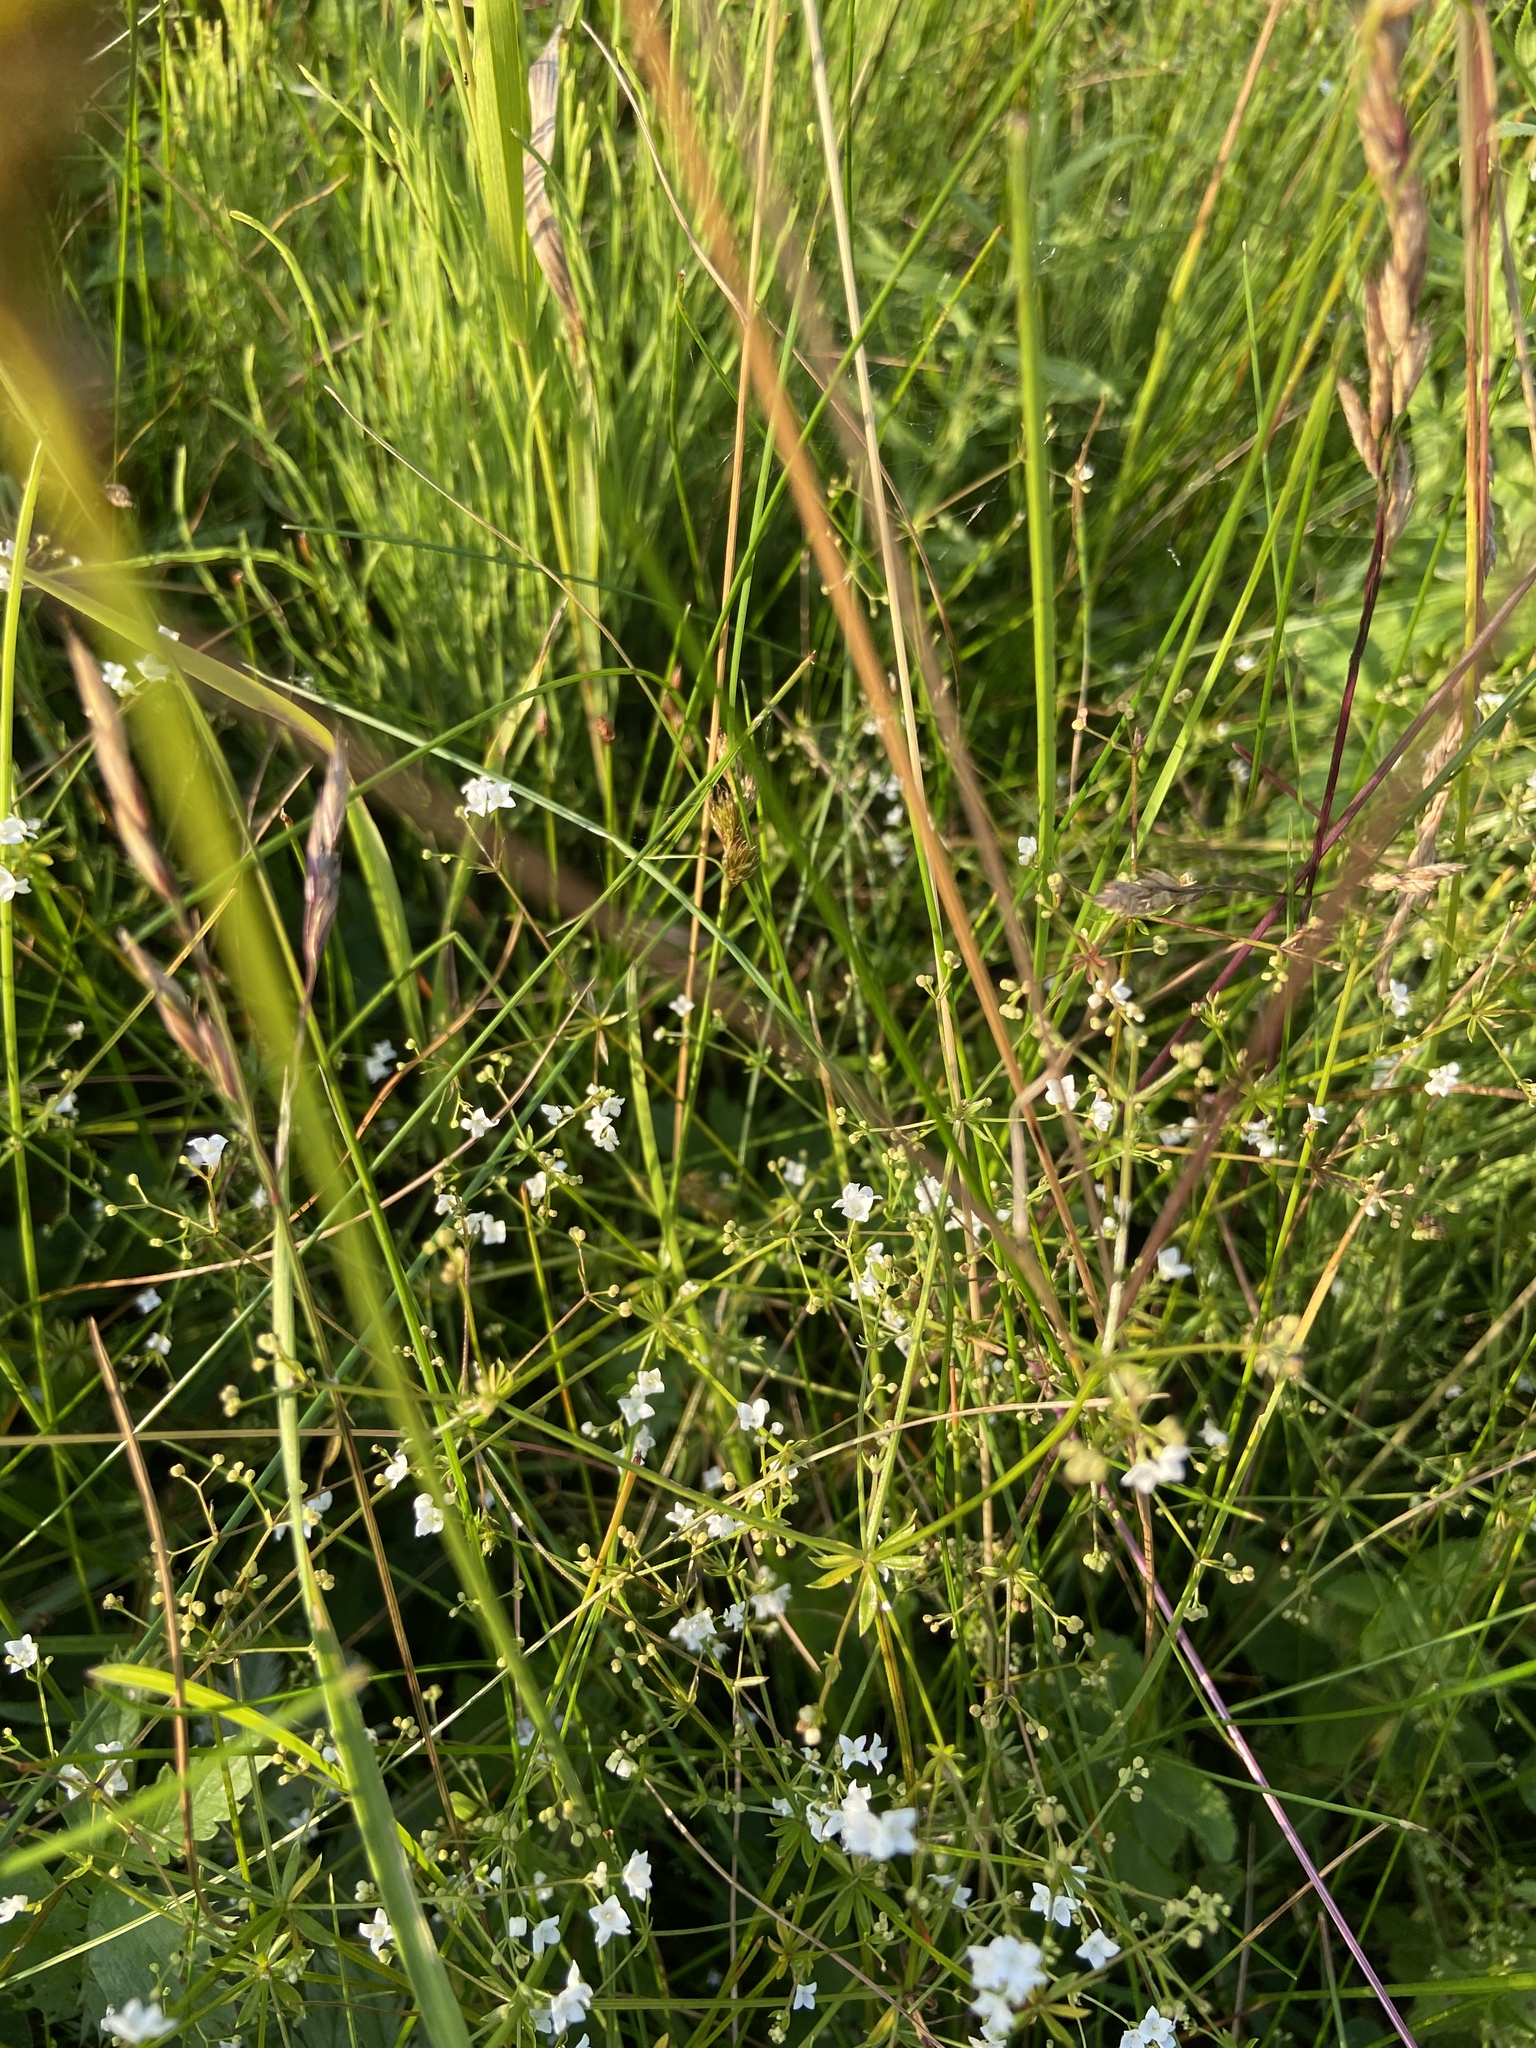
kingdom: Plantae
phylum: Tracheophyta
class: Magnoliopsida
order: Gentianales
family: Rubiaceae
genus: Galium
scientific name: Galium uliginosum
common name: Fen bedstraw
